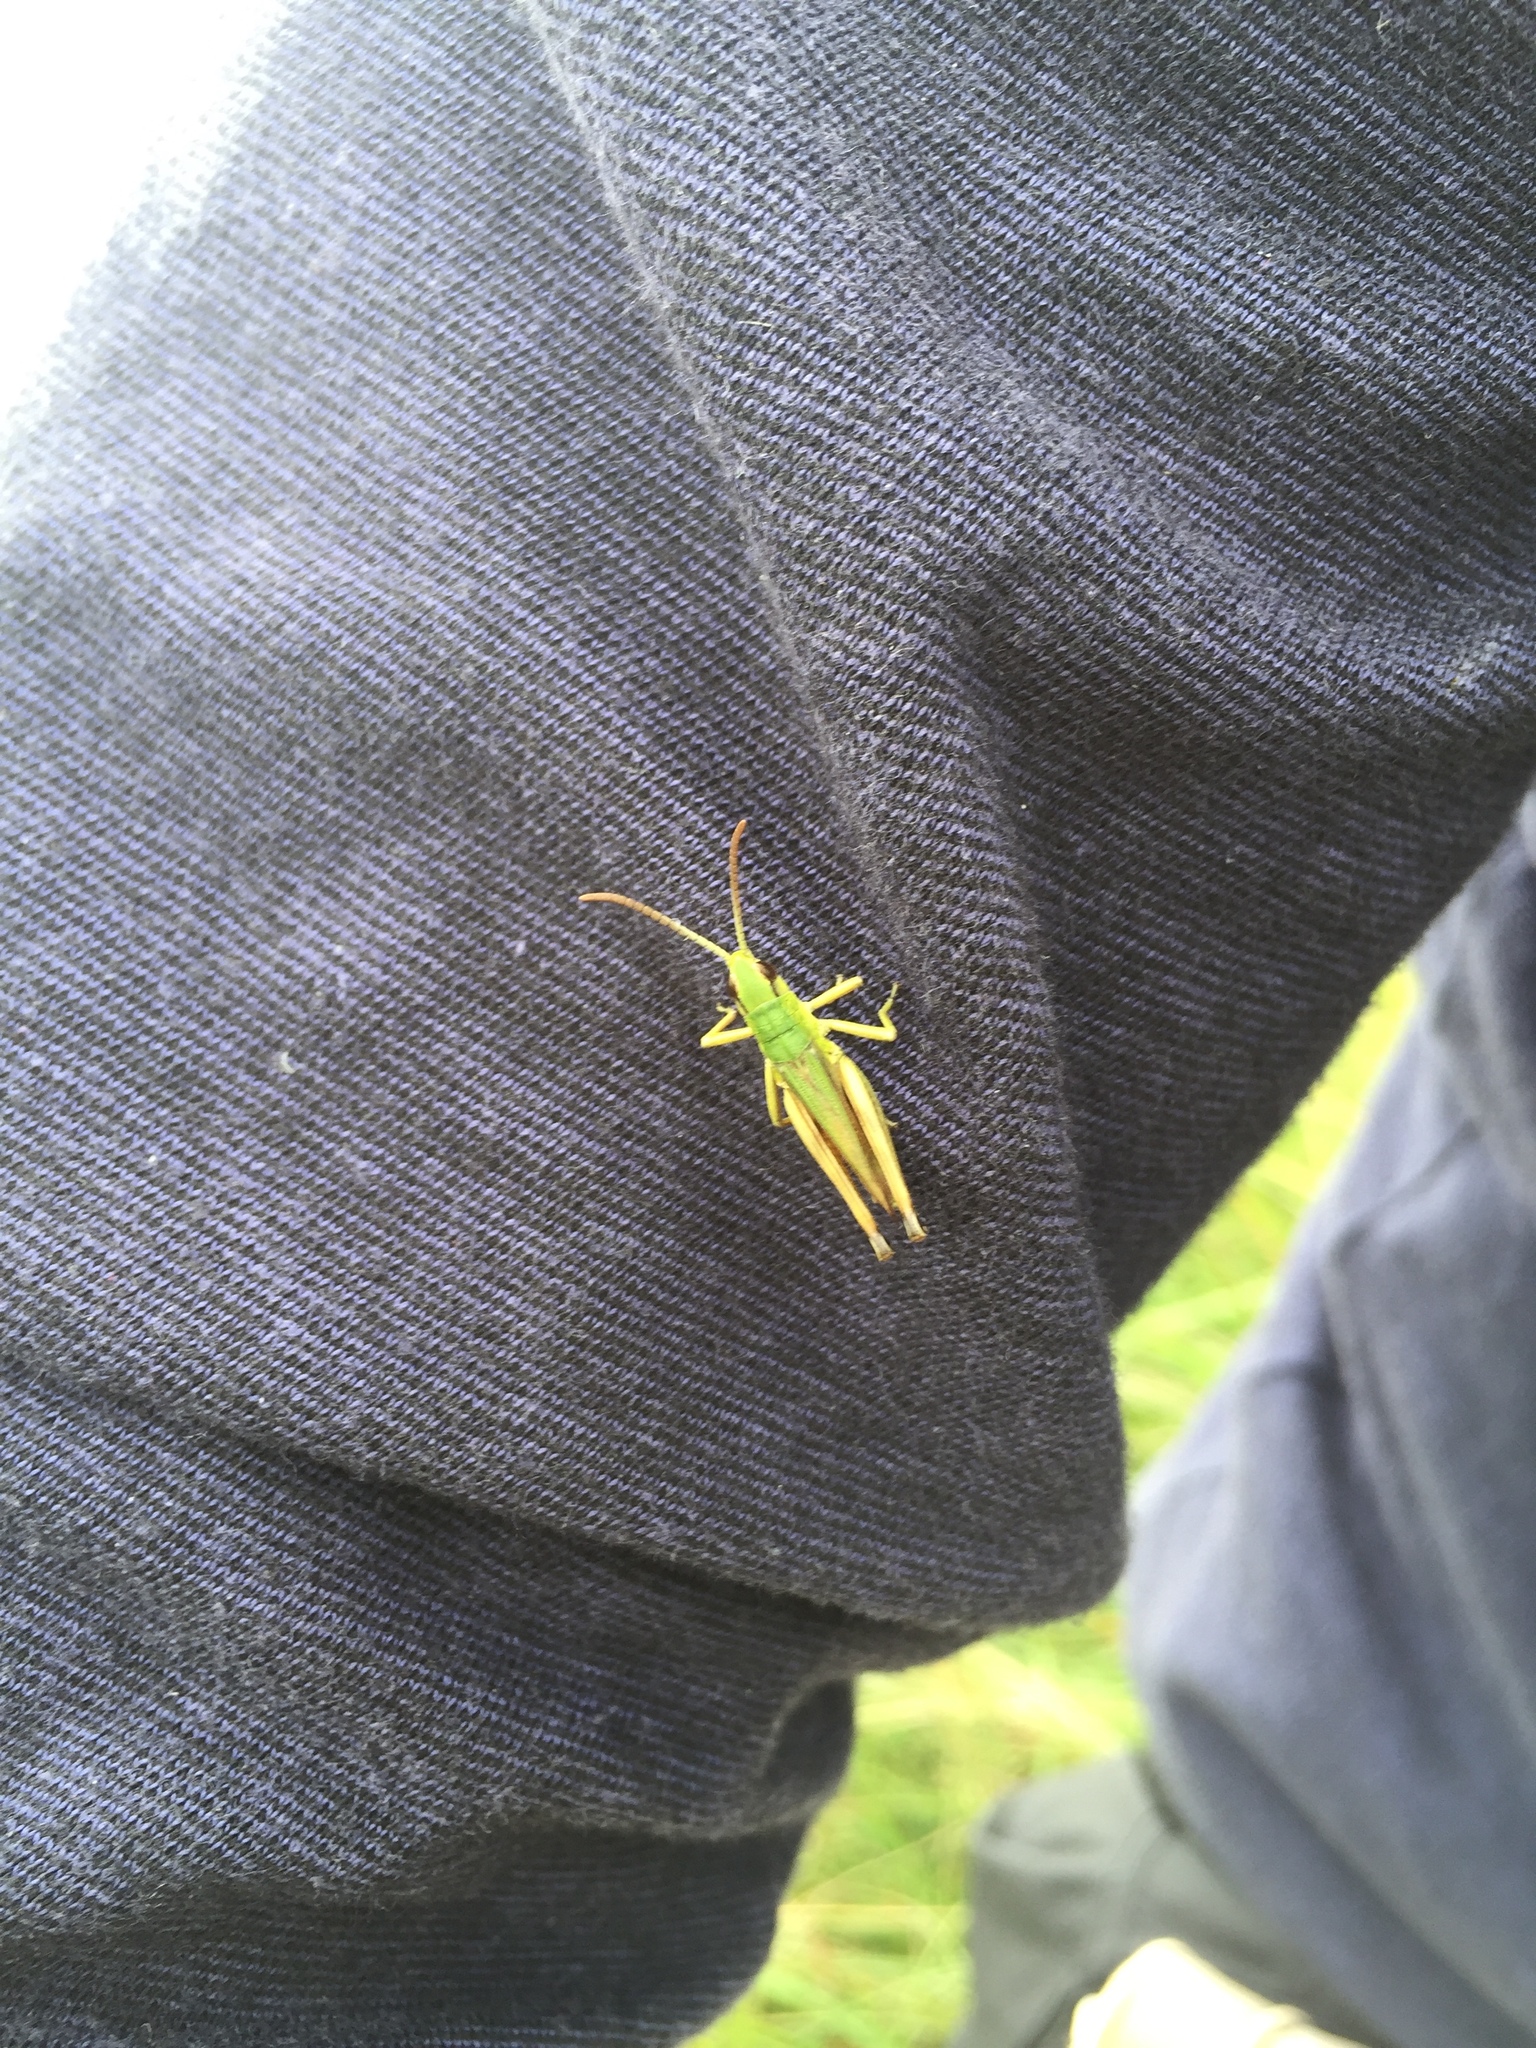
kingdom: Animalia
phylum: Arthropoda
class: Insecta
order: Orthoptera
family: Acrididae
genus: Pseudochorthippus
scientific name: Pseudochorthippus parallelus
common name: Meadow grasshopper
